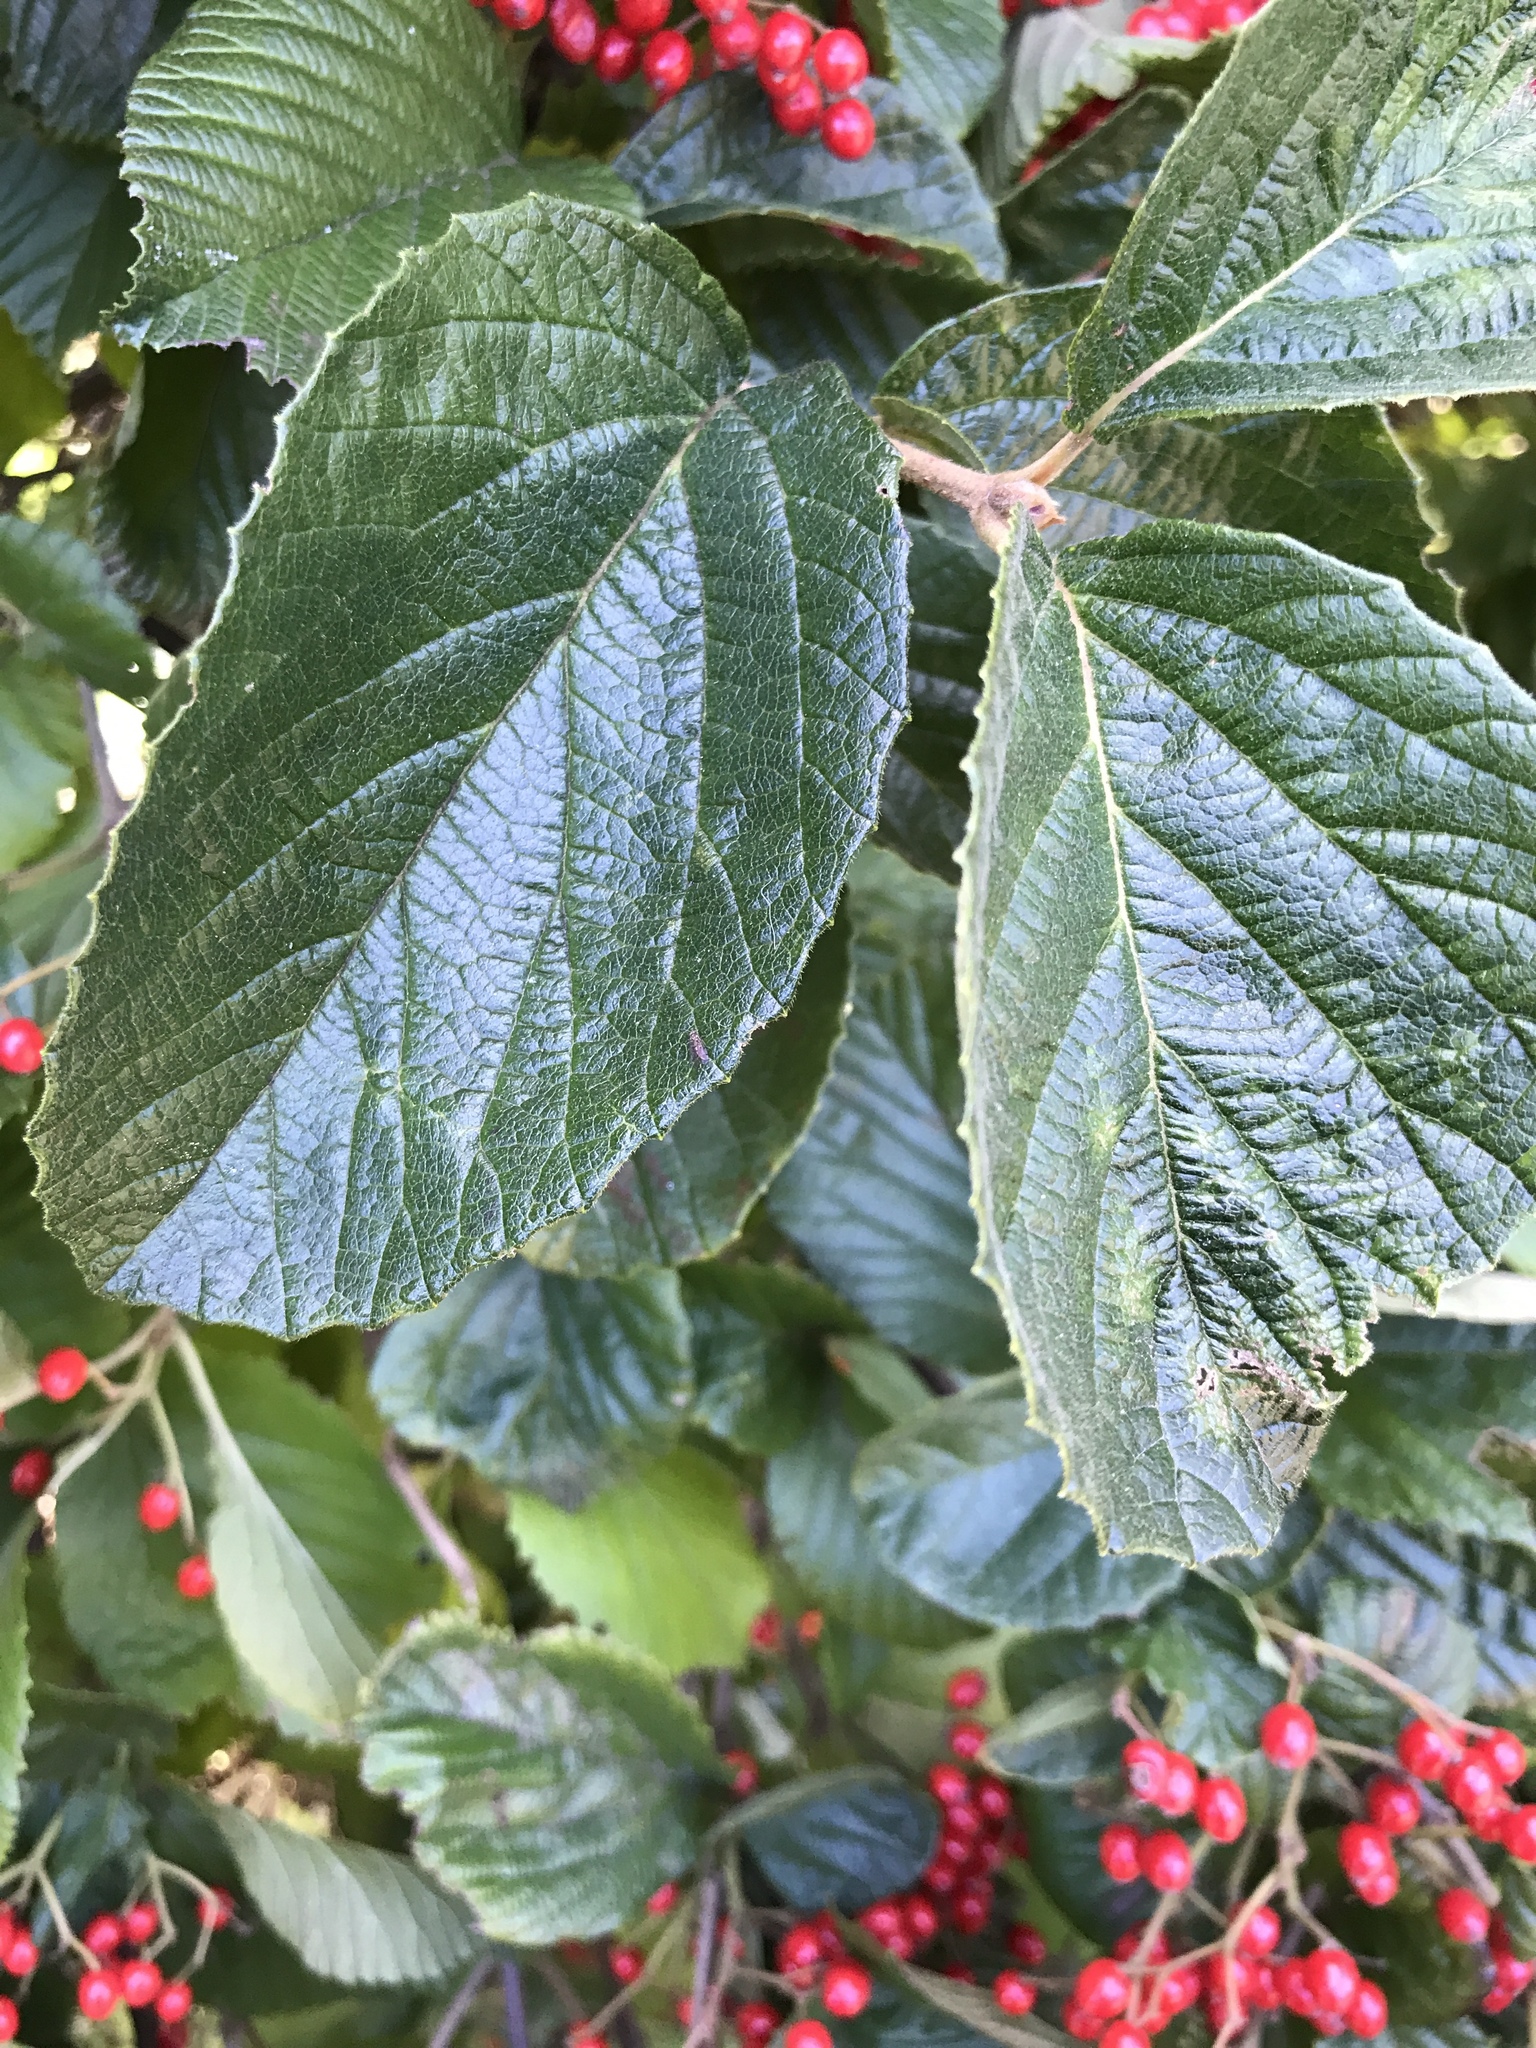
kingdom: Plantae
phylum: Tracheophyta
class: Magnoliopsida
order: Dipsacales
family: Viburnaceae
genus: Viburnum
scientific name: Viburnum dilatatum
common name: Linden arrowwood
